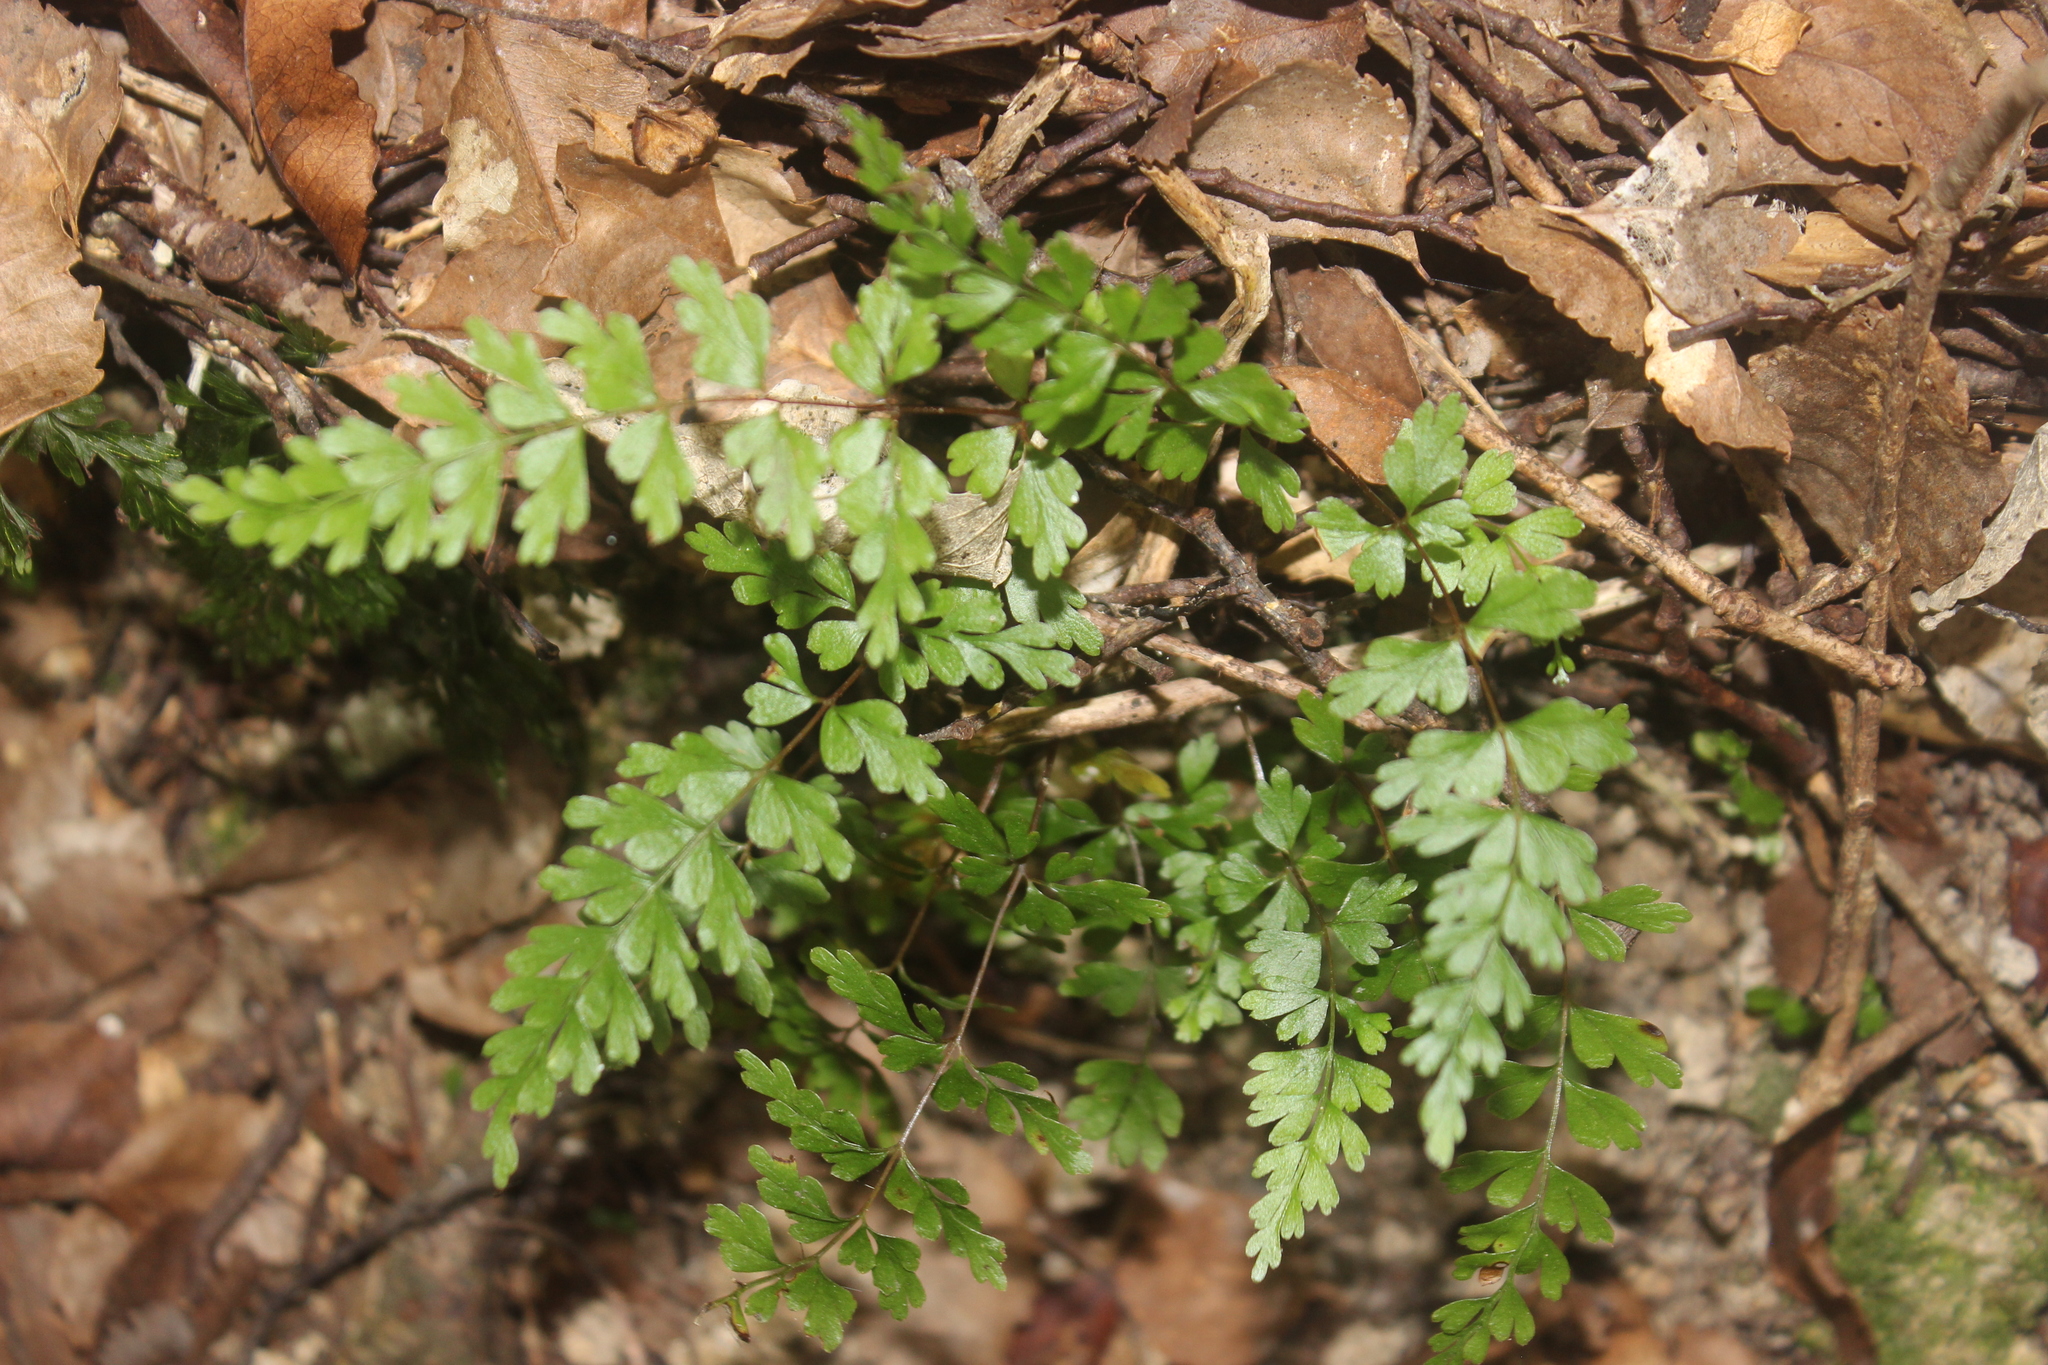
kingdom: Plantae
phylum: Tracheophyta
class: Polypodiopsida
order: Polypodiales
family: Lindsaeaceae
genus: Lindsaea
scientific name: Lindsaea trichomanoides
